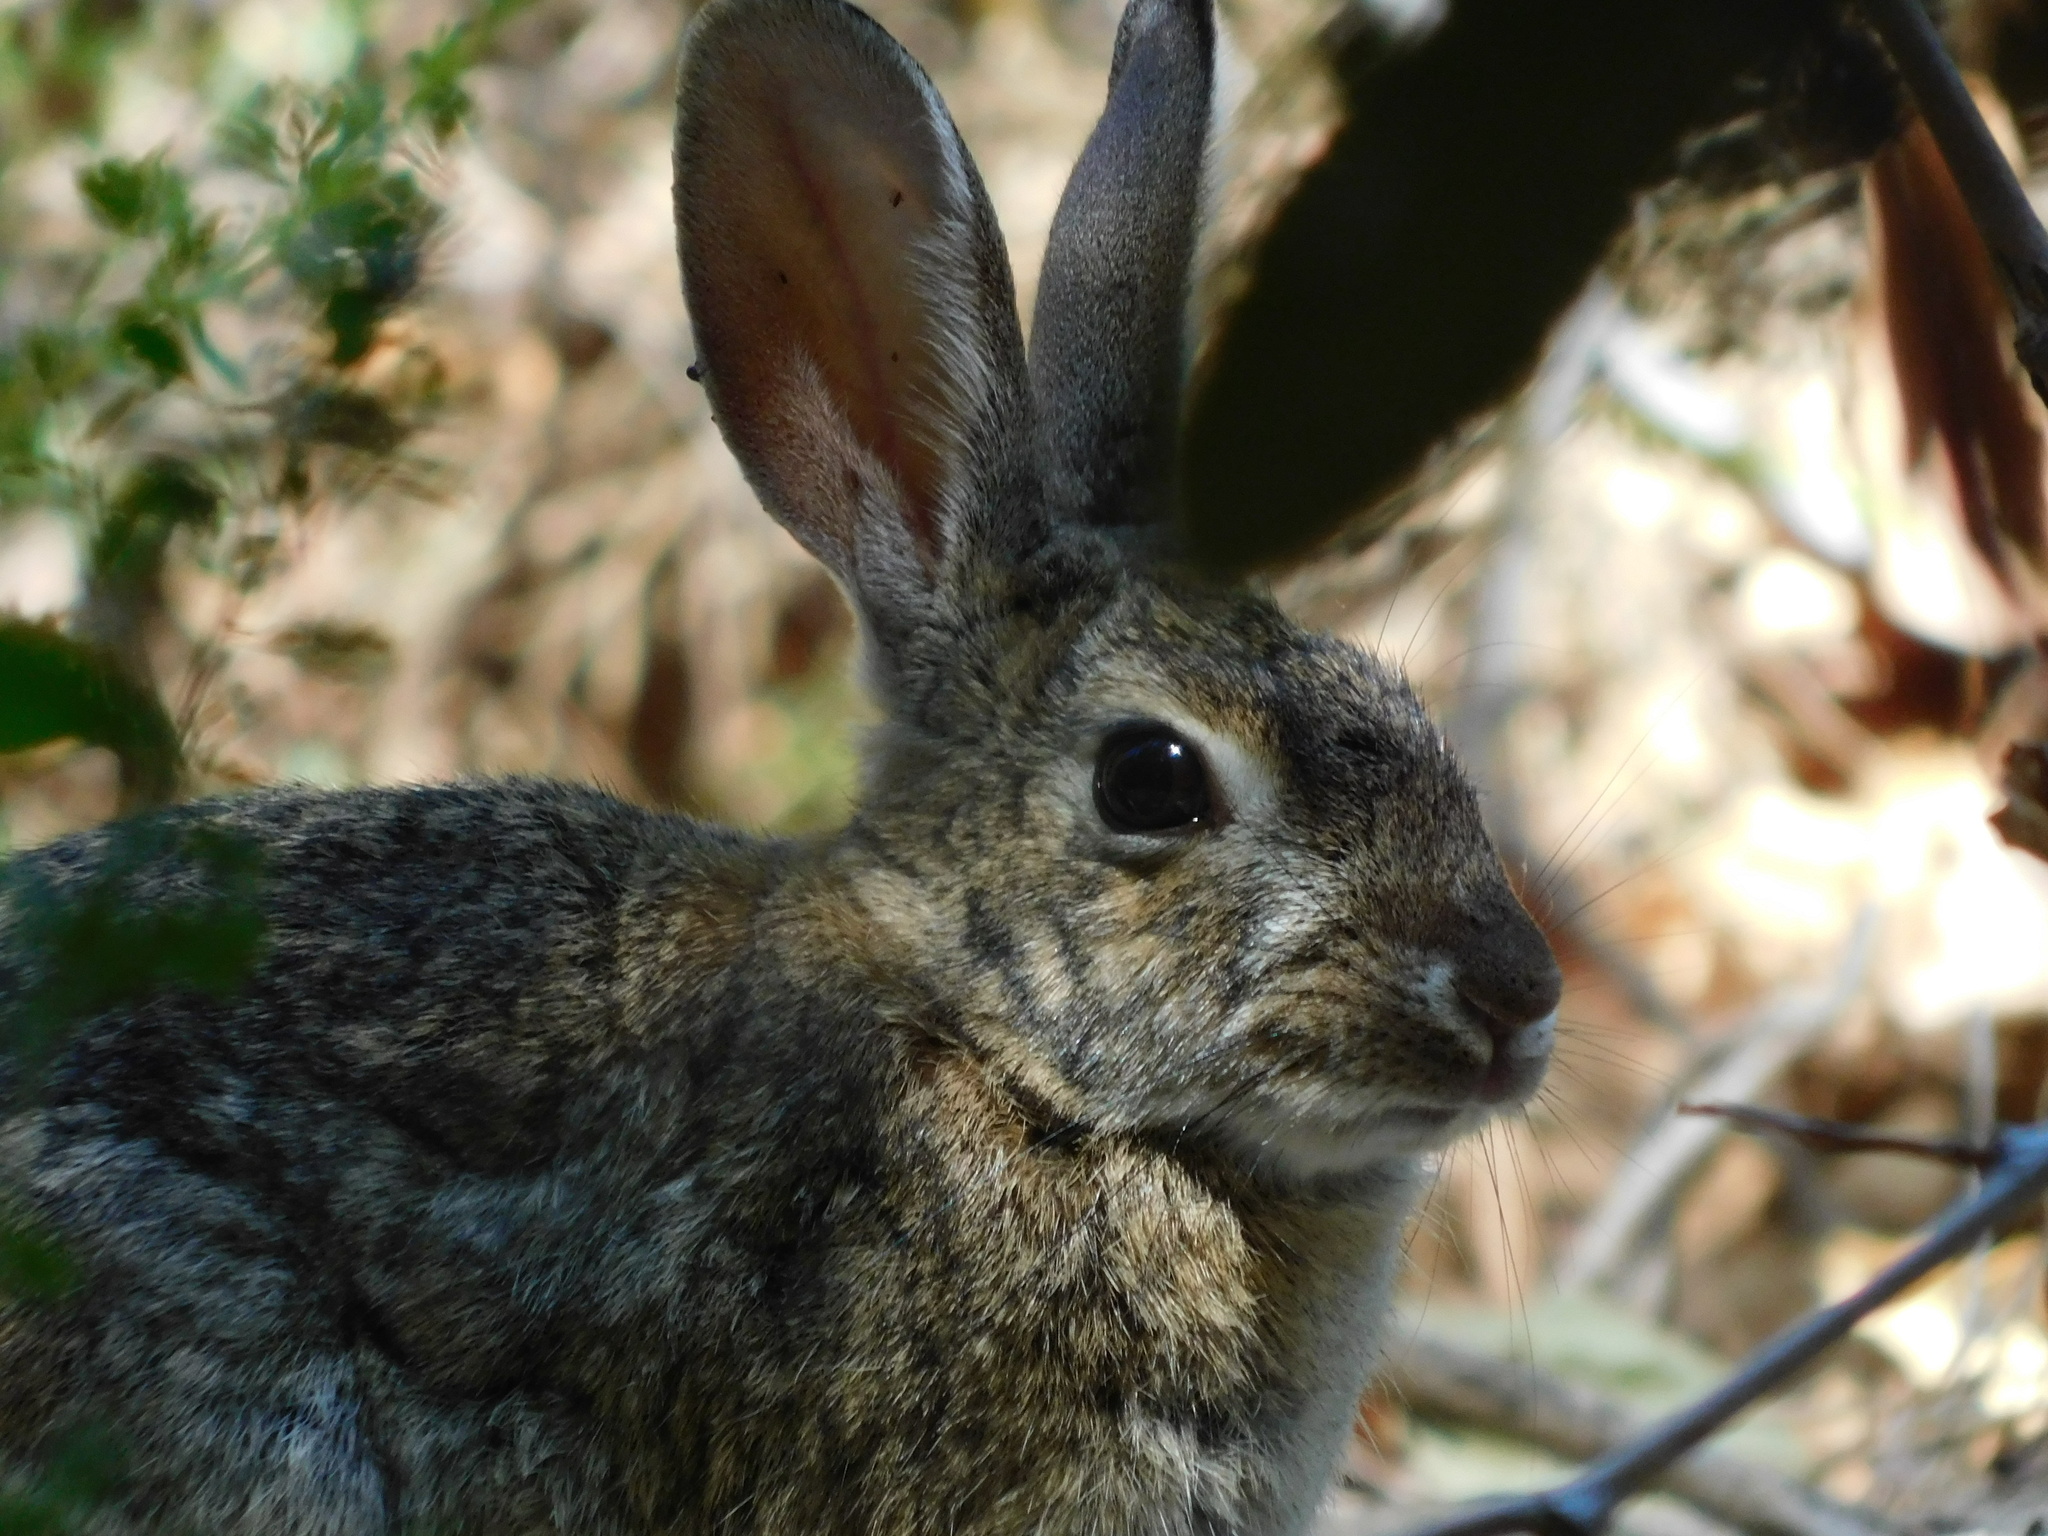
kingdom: Animalia
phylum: Chordata
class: Mammalia
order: Lagomorpha
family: Leporidae
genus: Sylvilagus
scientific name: Sylvilagus audubonii
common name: Desert cottontail
